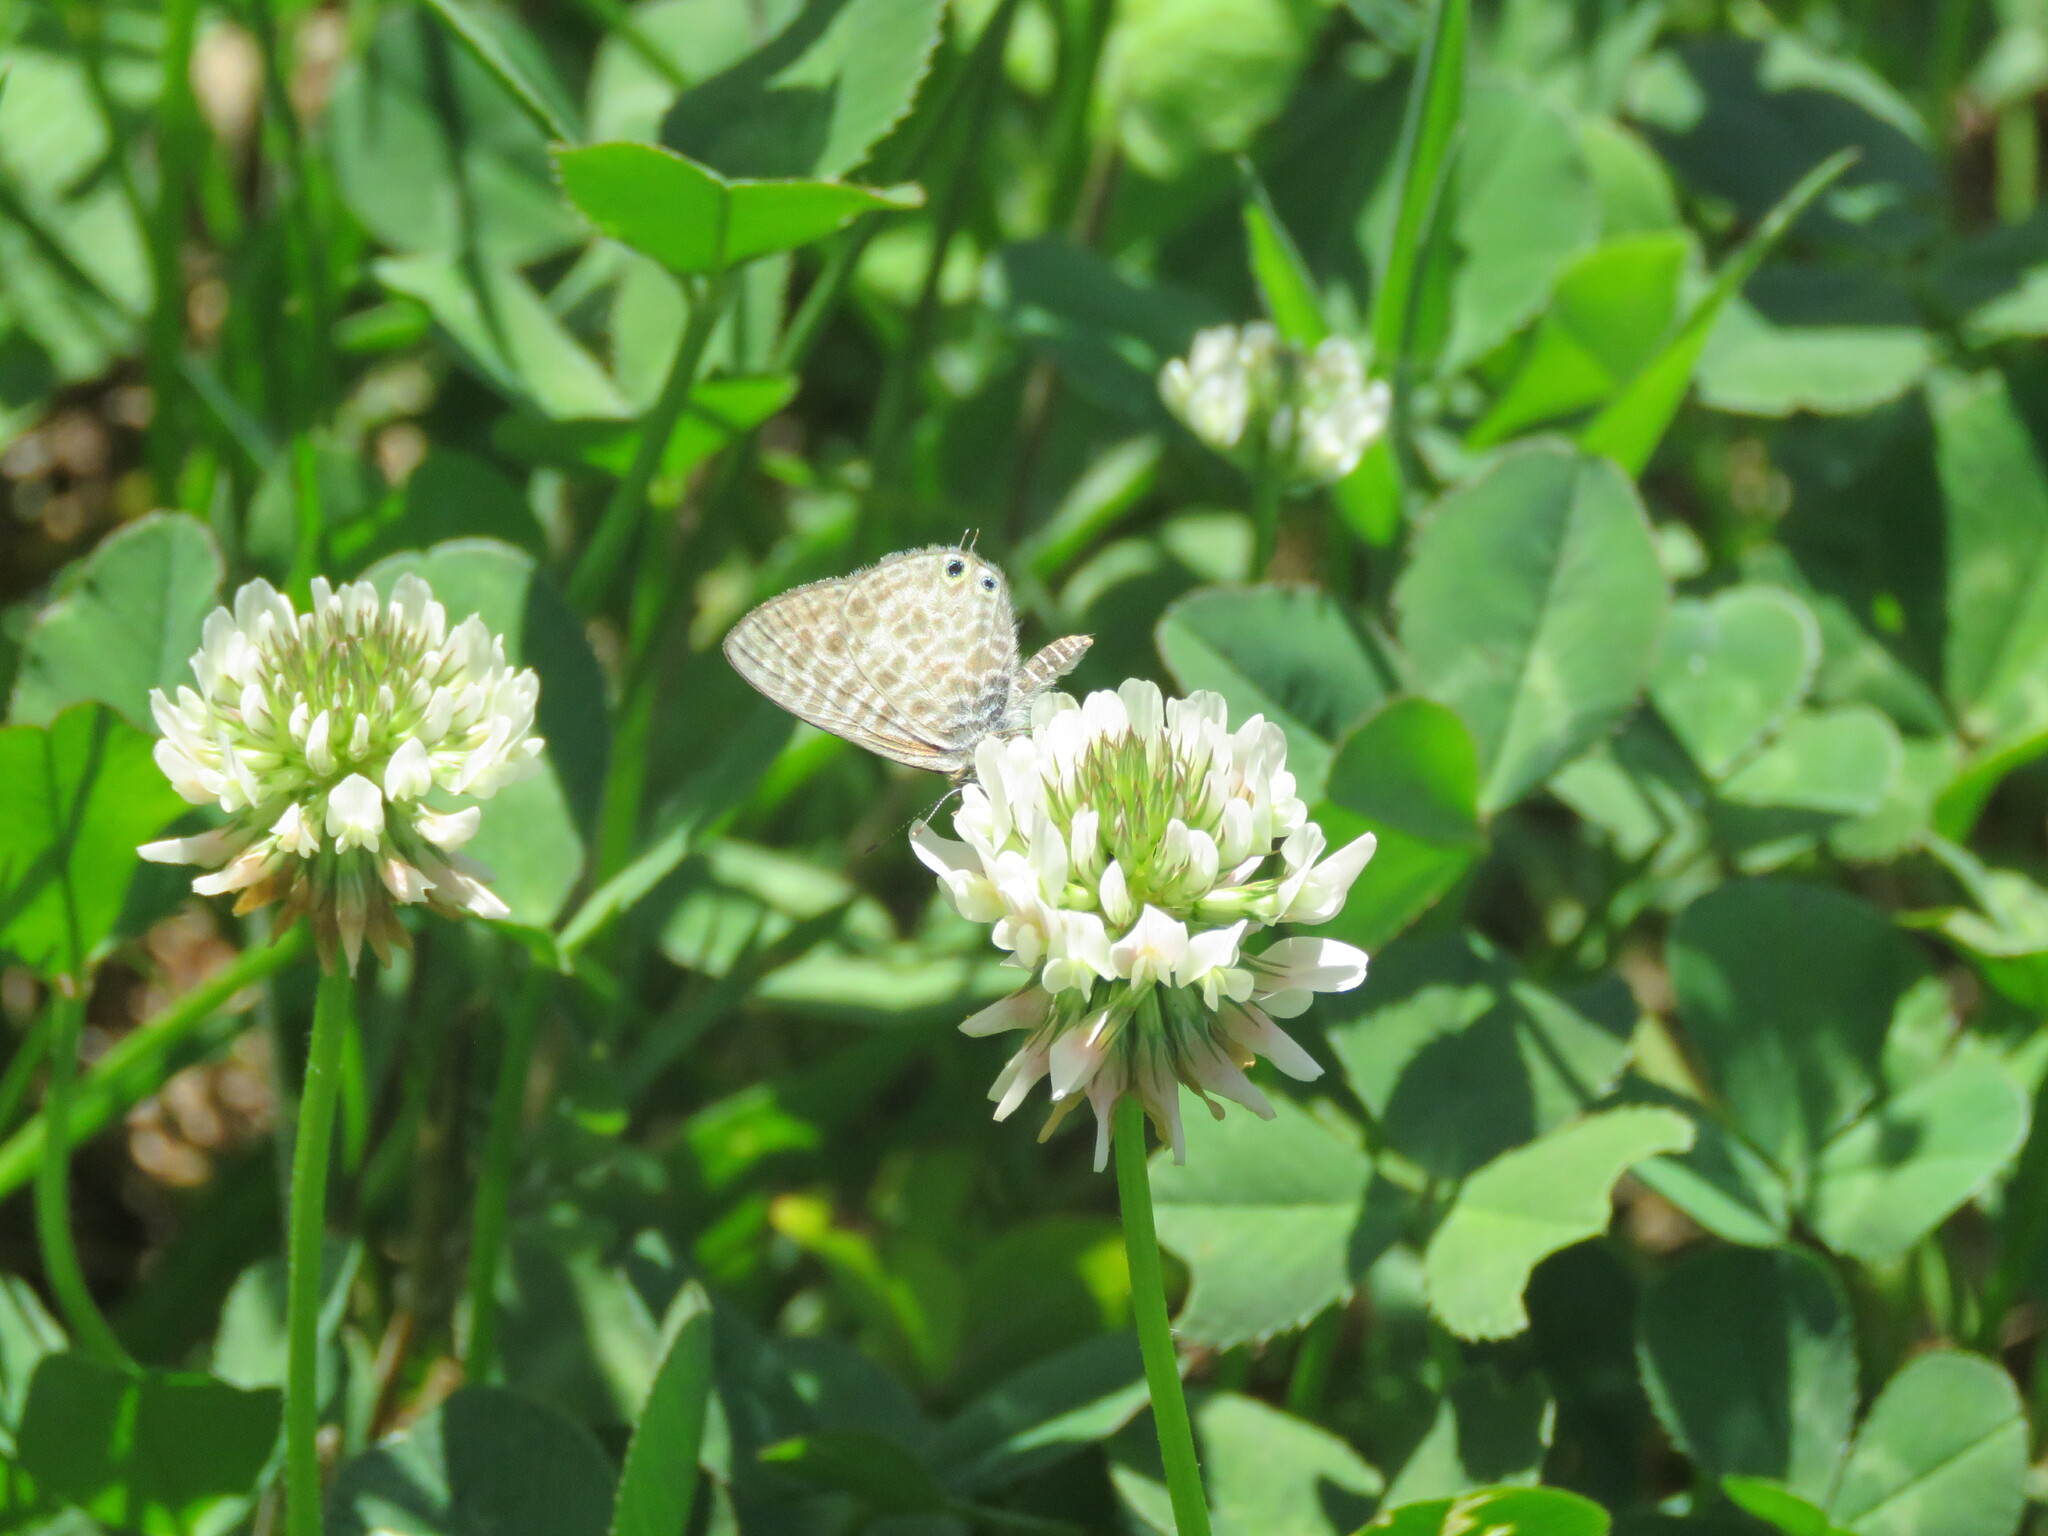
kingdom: Animalia
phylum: Arthropoda
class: Insecta
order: Lepidoptera
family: Lycaenidae
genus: Leptotes
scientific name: Leptotes pirithous
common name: Lang's short-tailed blue
